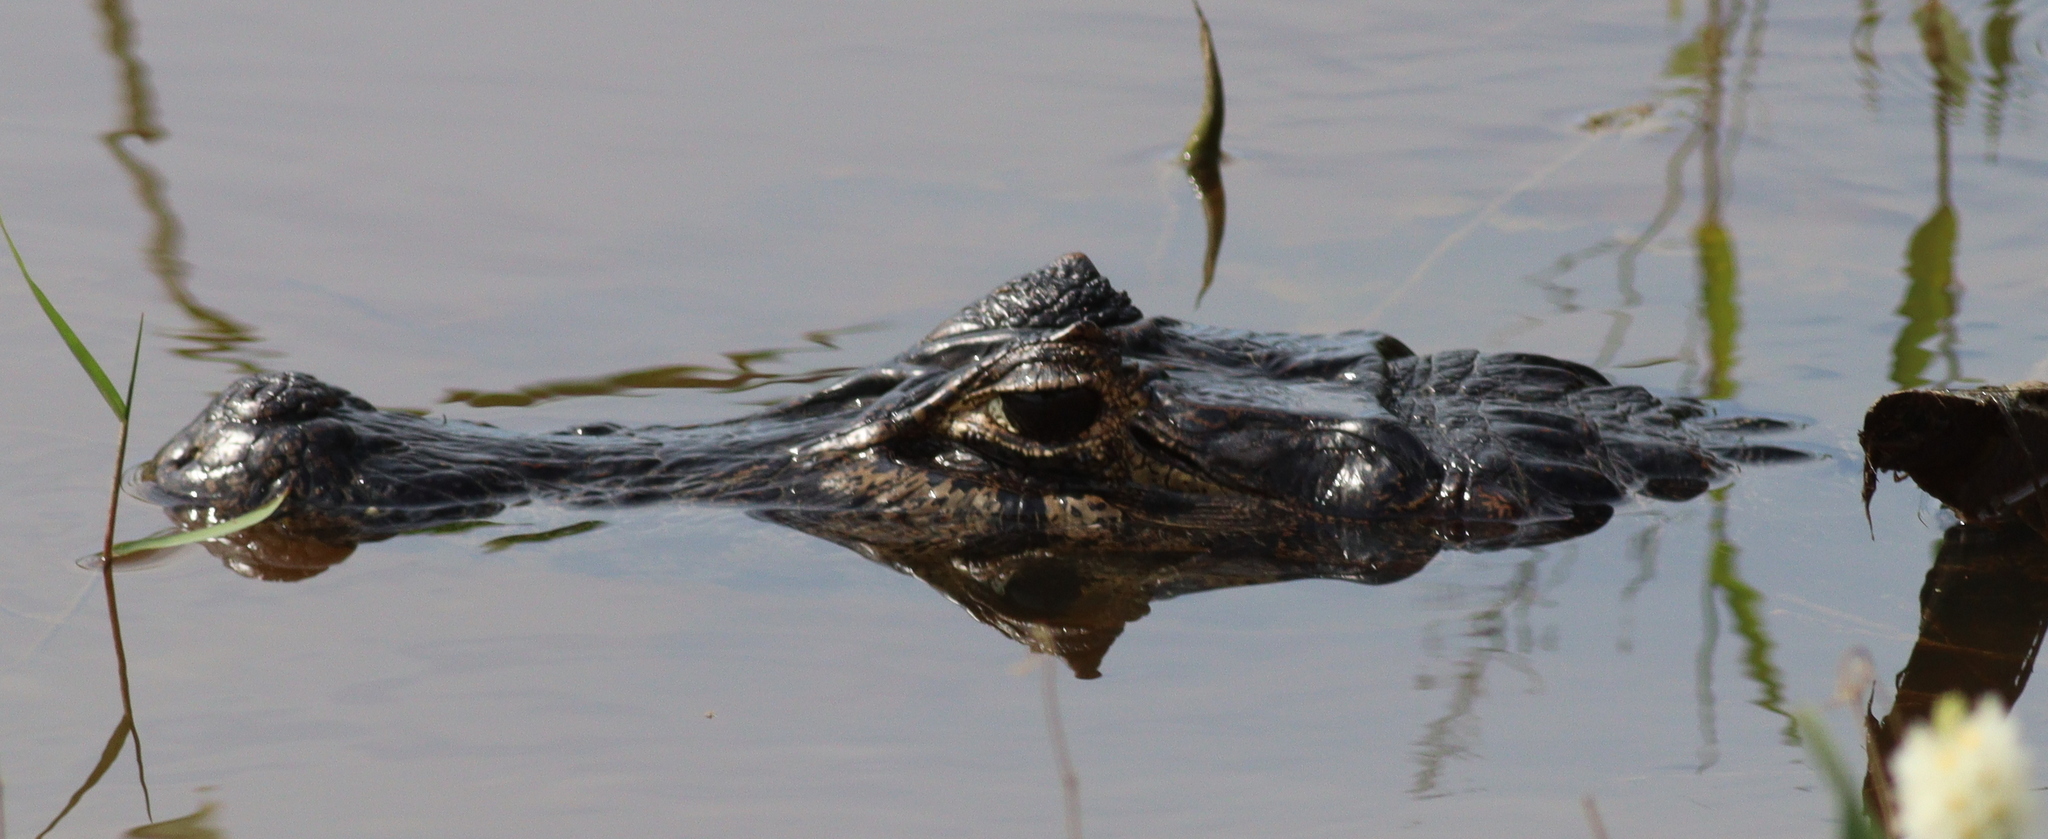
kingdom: Animalia
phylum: Chordata
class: Crocodylia
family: Alligatoridae
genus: Caiman
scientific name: Caiman yacare
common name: Yacare caiman
